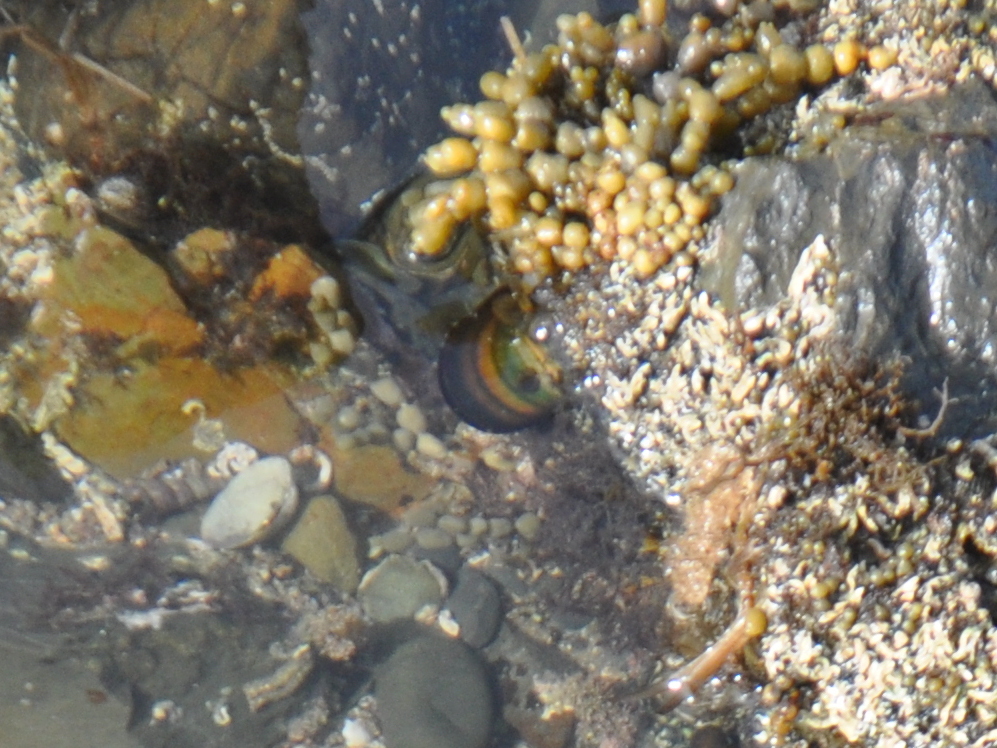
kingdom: Animalia
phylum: Mollusca
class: Bivalvia
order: Mytilida
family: Mytilidae
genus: Perna
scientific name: Perna canaliculus
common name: New zealand greenshelltm
